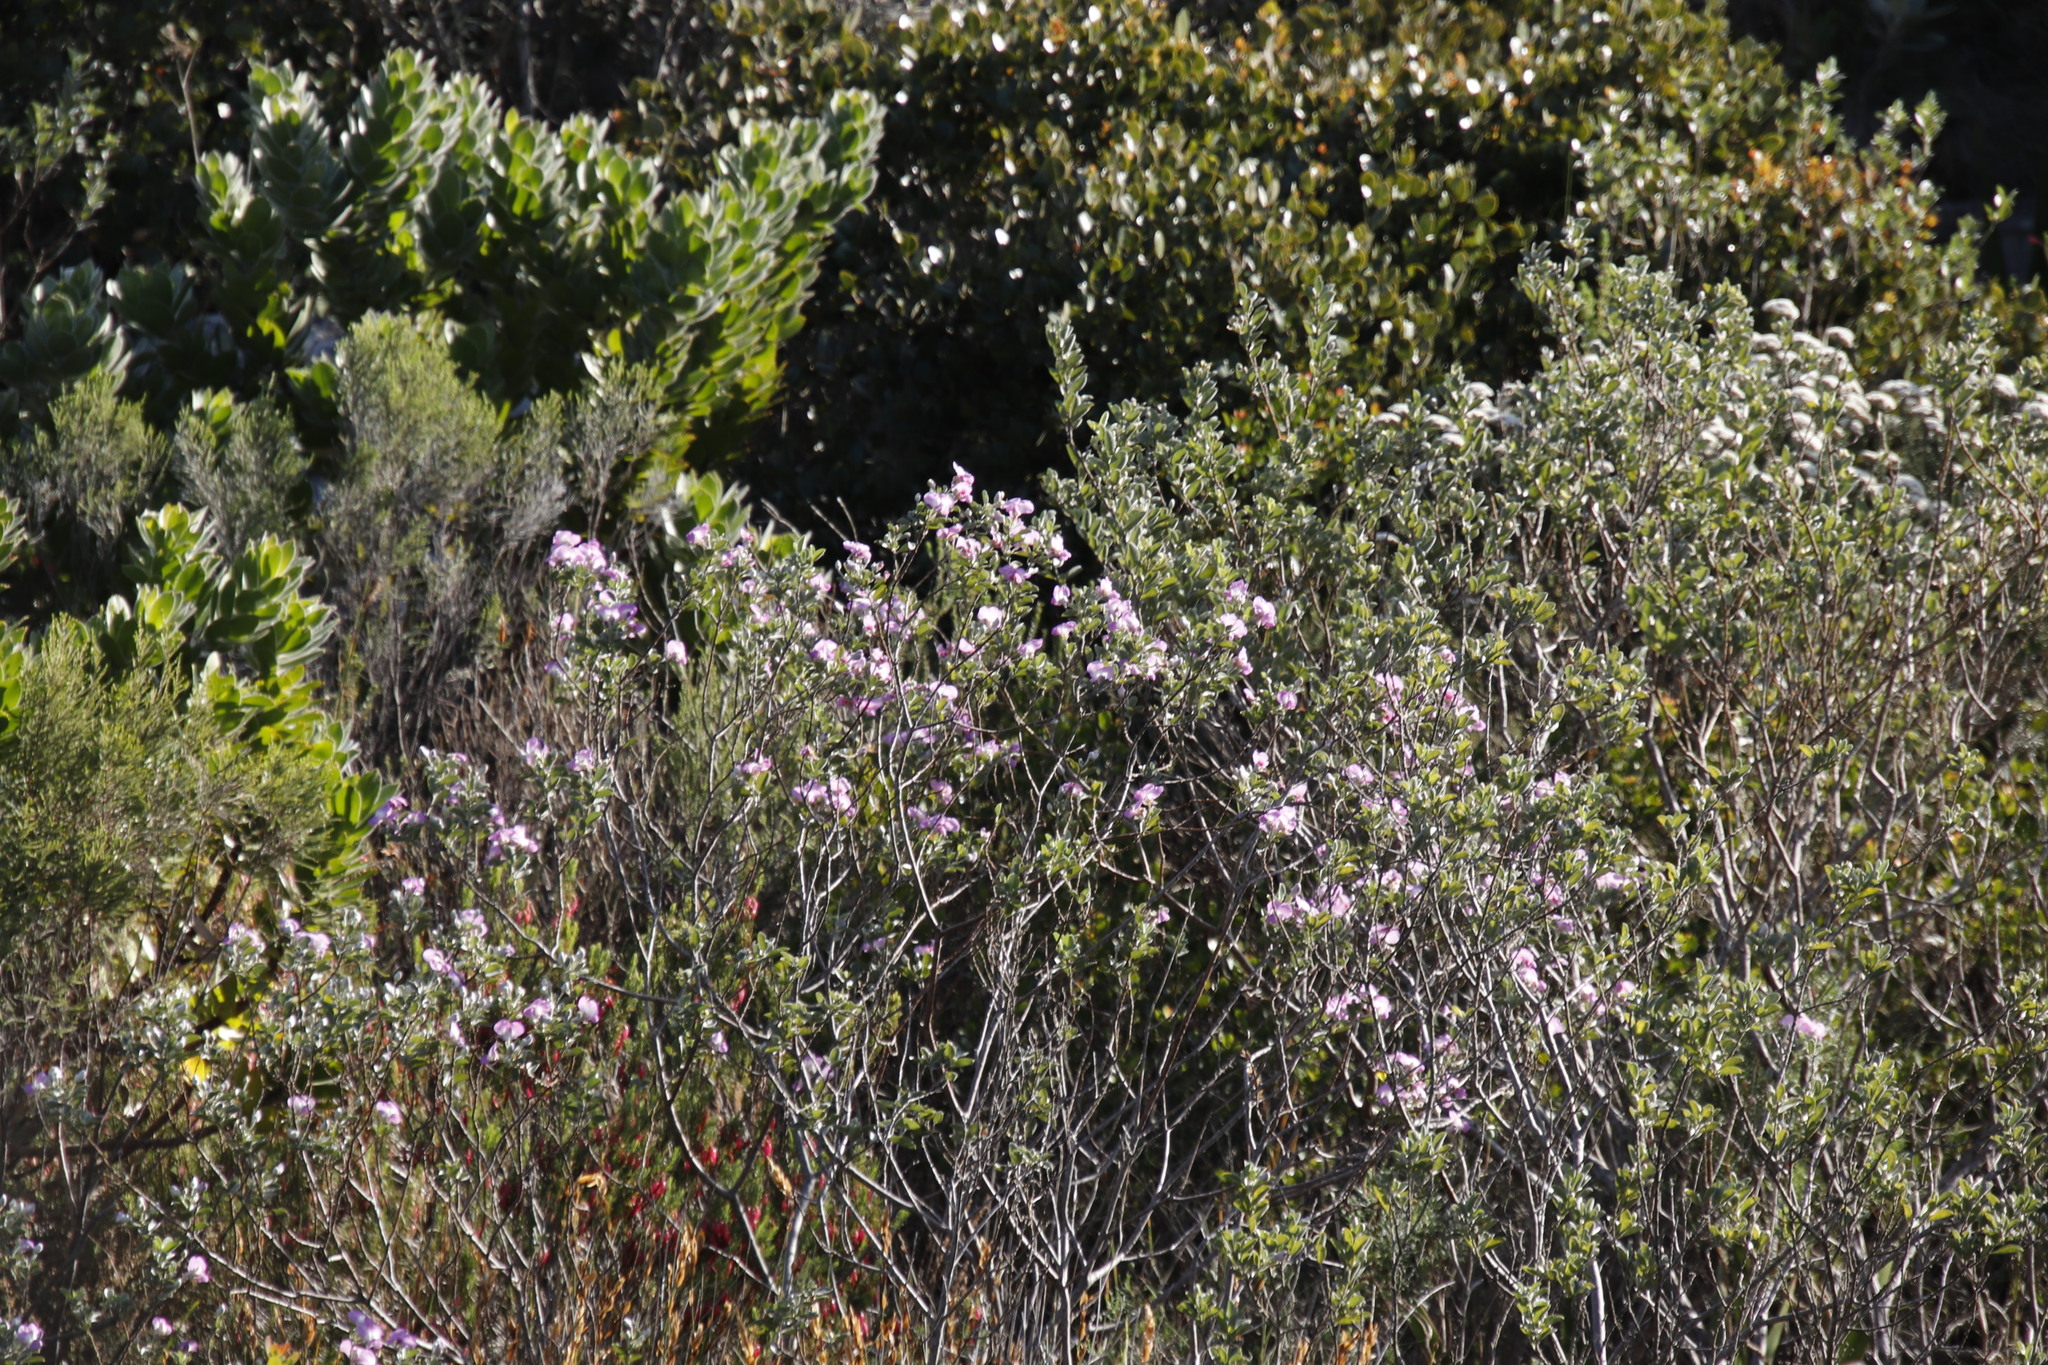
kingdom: Plantae
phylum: Tracheophyta
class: Magnoliopsida
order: Fabales
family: Fabaceae
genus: Podalyria
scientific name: Podalyria calyptrata
